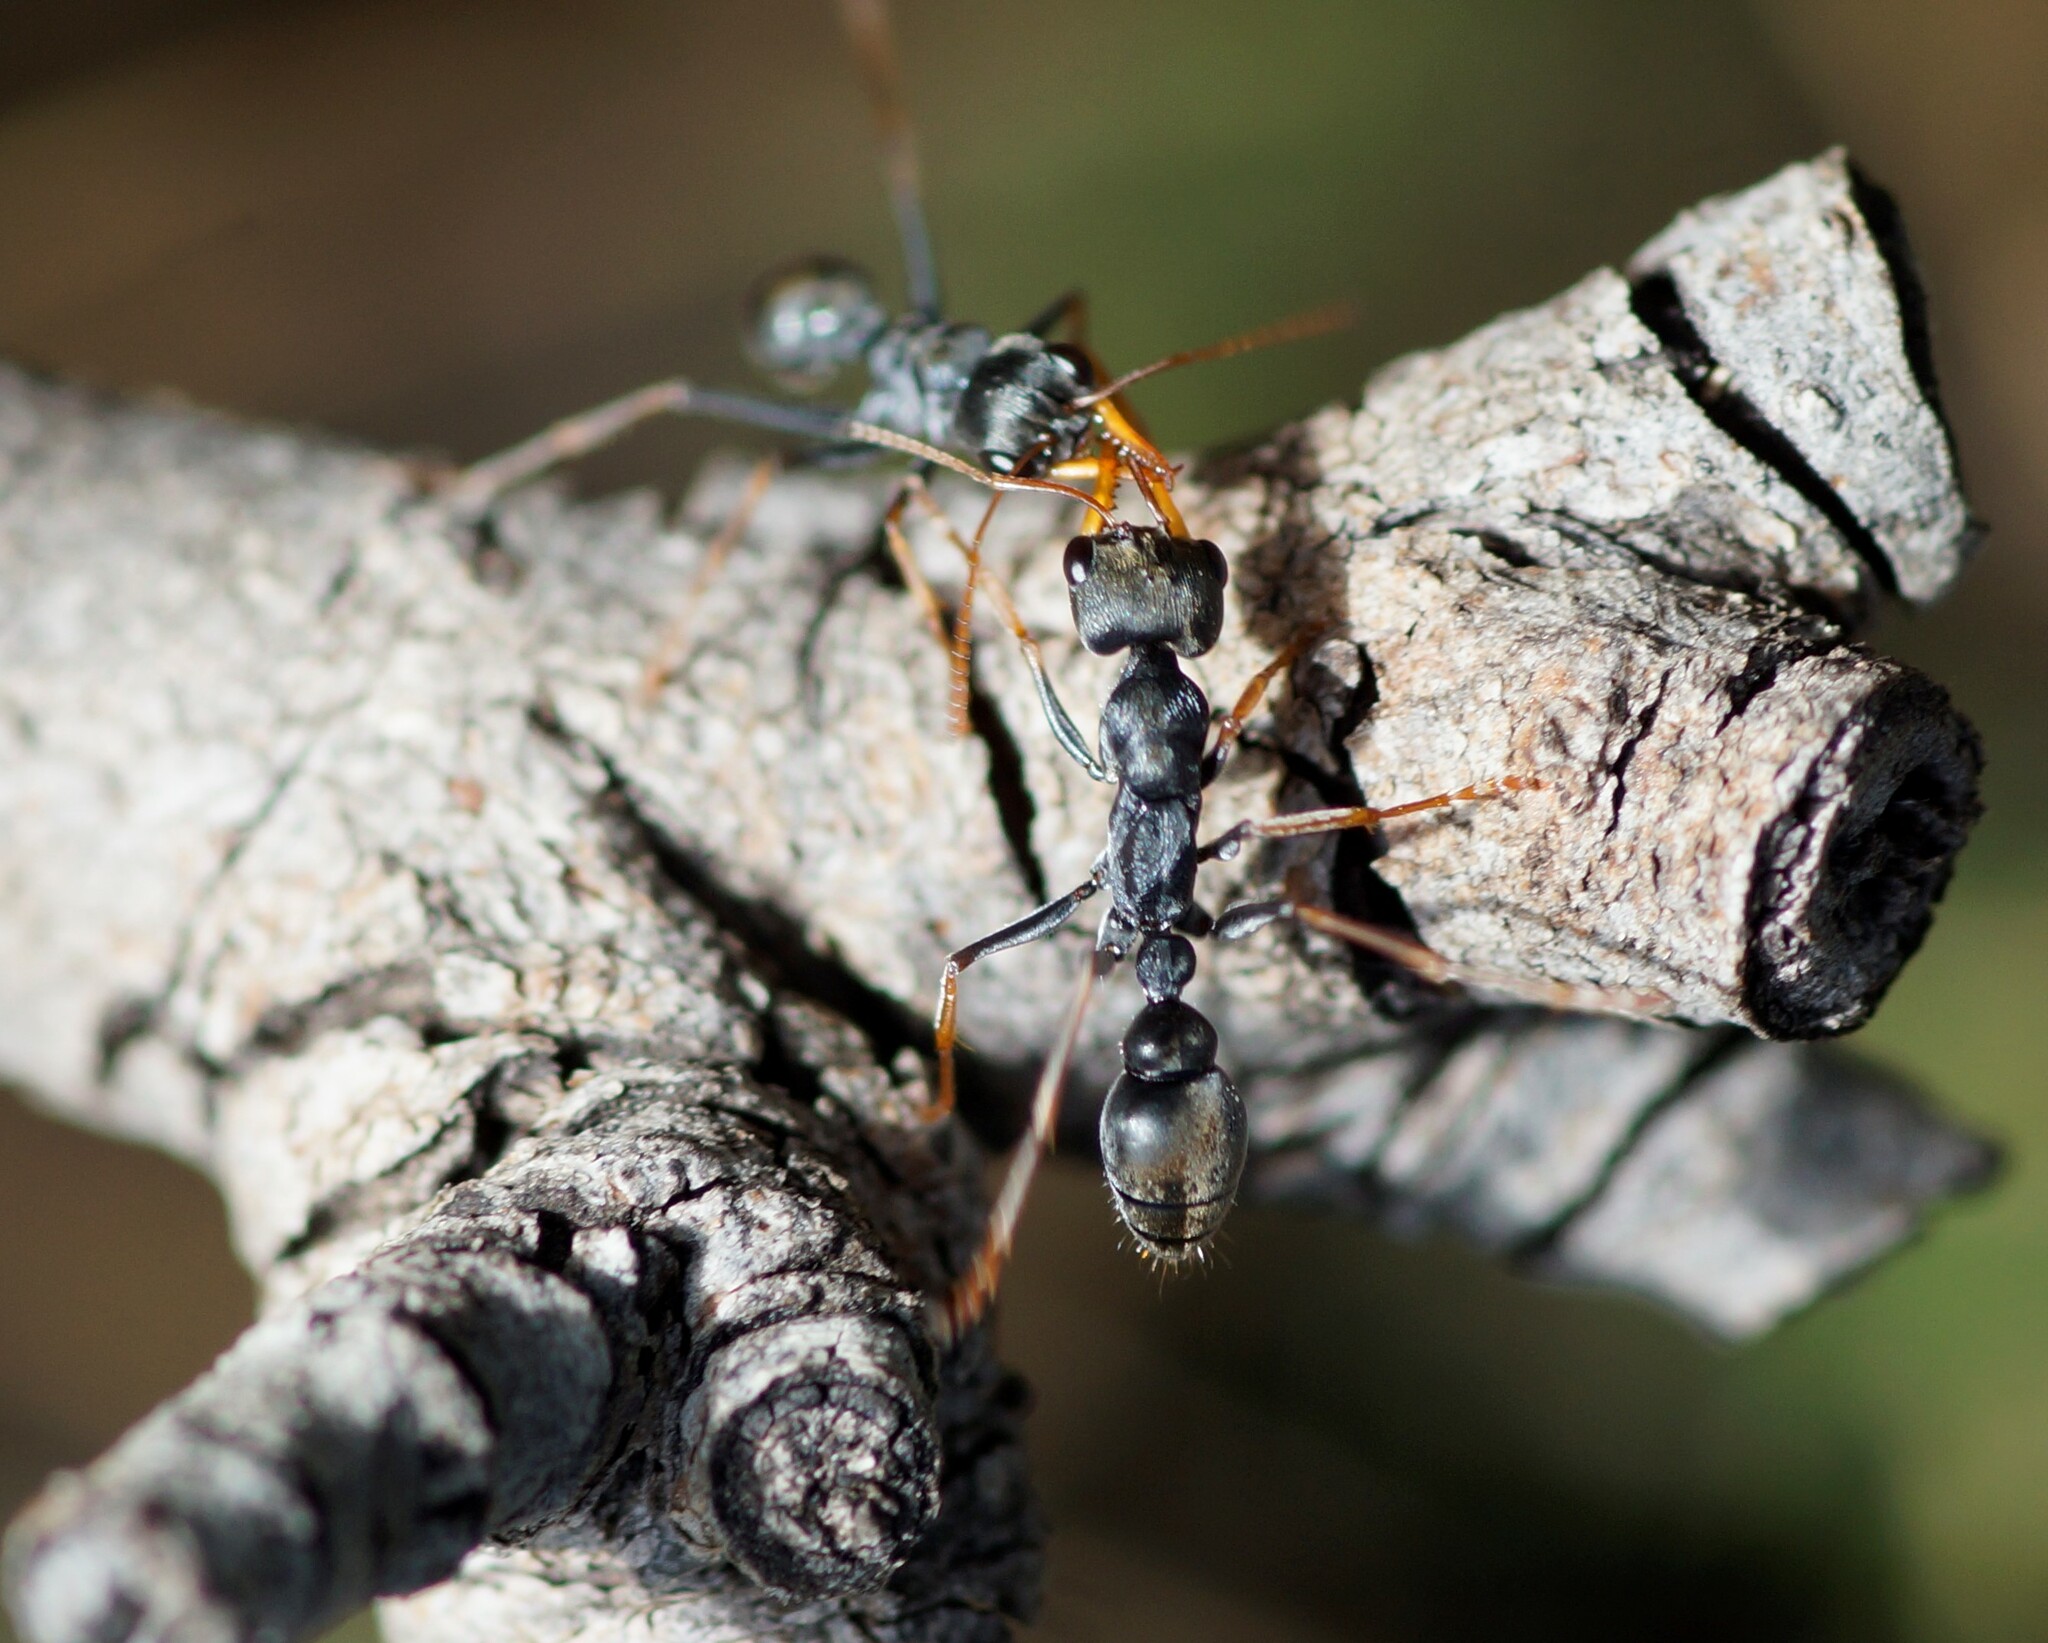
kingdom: Animalia
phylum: Arthropoda
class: Insecta
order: Hymenoptera
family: Formicidae
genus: Myrmecia
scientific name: Myrmecia pilosula
